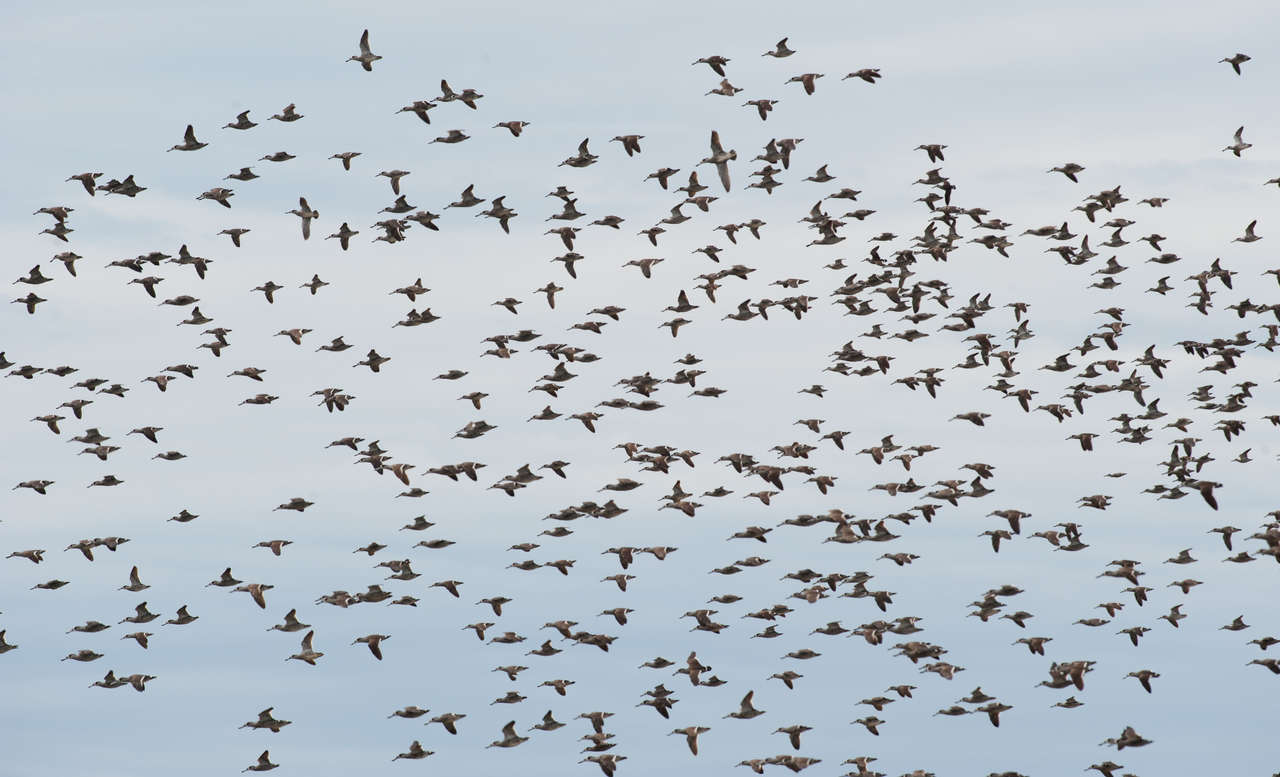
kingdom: Animalia
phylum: Chordata
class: Aves
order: Anseriformes
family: Anatidae
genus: Malacorhynchus
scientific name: Malacorhynchus membranaceus
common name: Pink-eared duck
